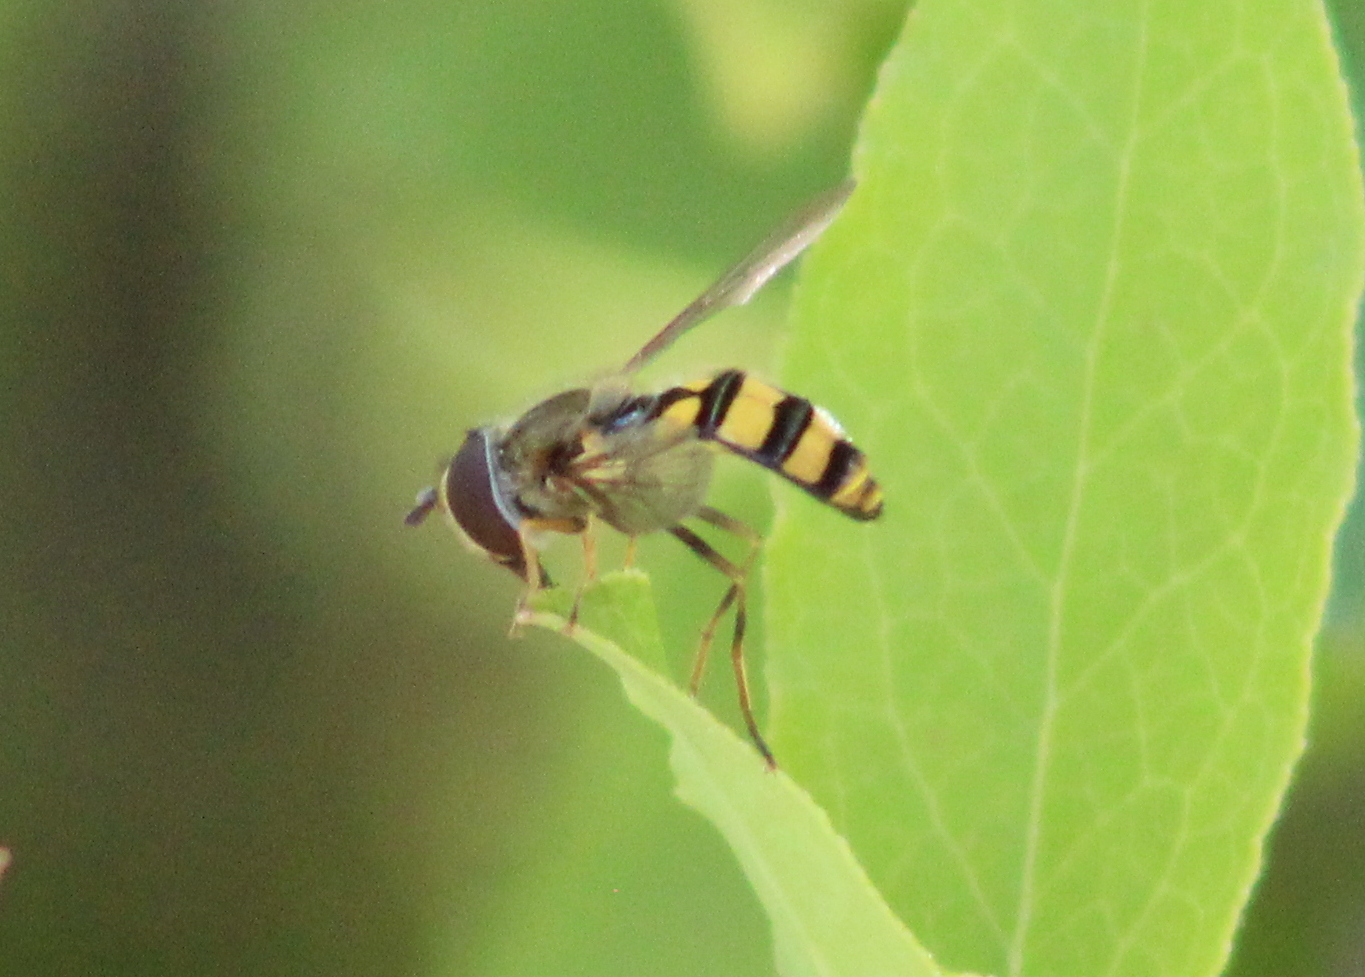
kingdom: Animalia
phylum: Arthropoda
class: Insecta
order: Diptera
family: Syrphidae
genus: Eupeodes
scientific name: Eupeodes
